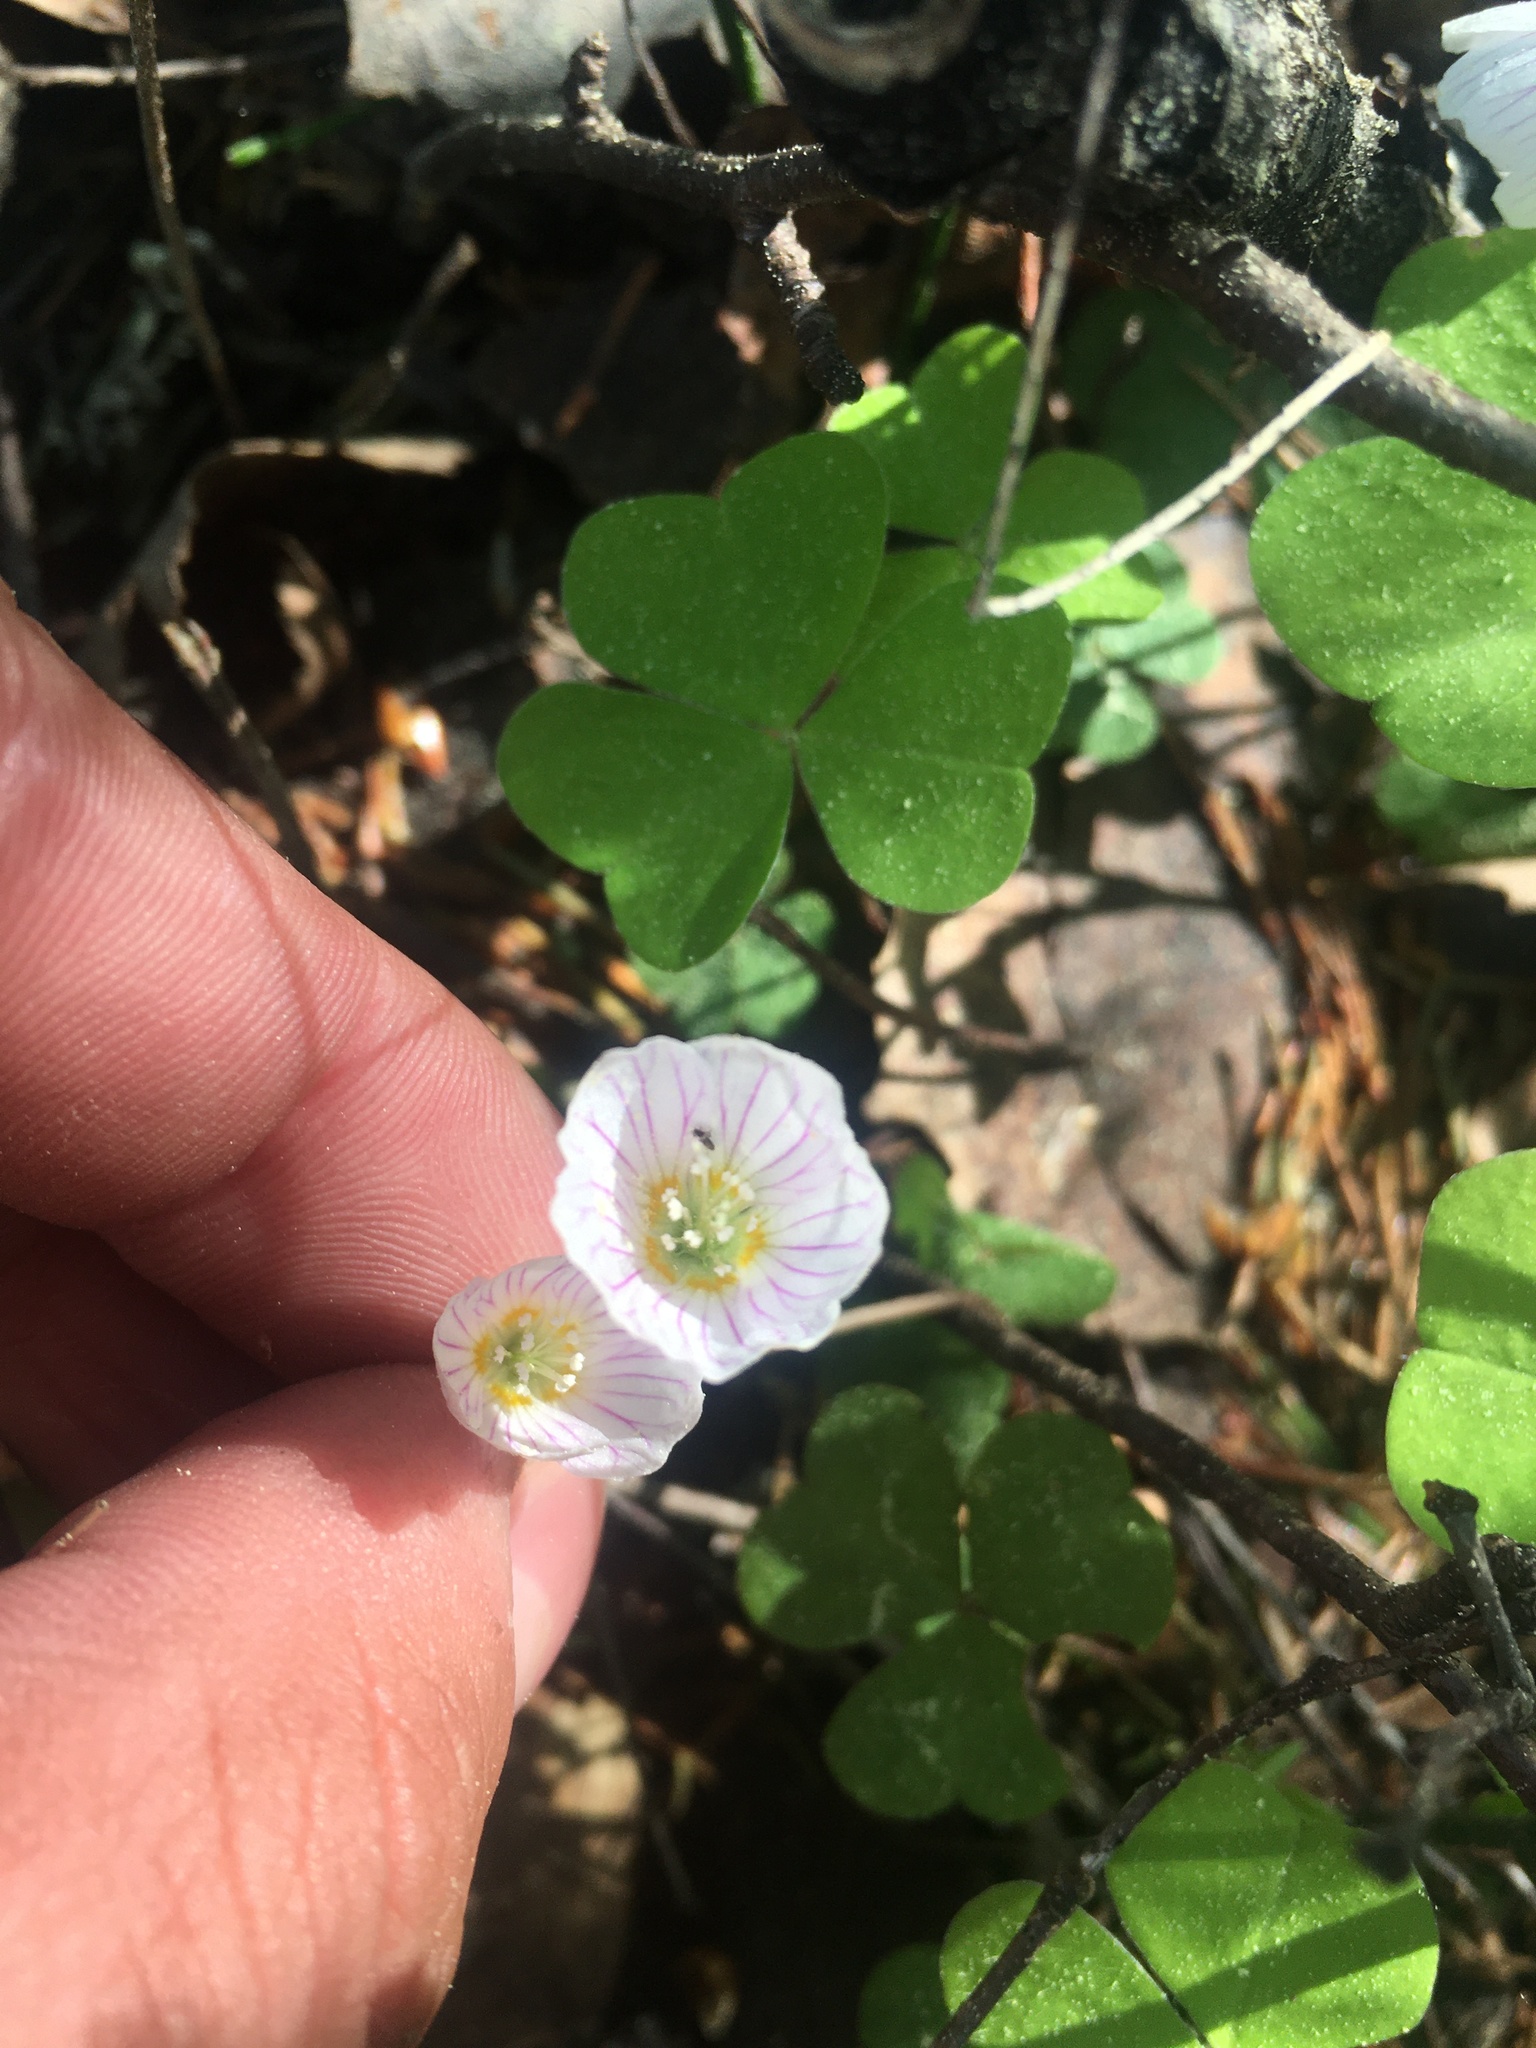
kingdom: Plantae
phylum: Tracheophyta
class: Magnoliopsida
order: Oxalidales
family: Oxalidaceae
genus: Oxalis
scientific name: Oxalis acetosella
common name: Wood-sorrel
